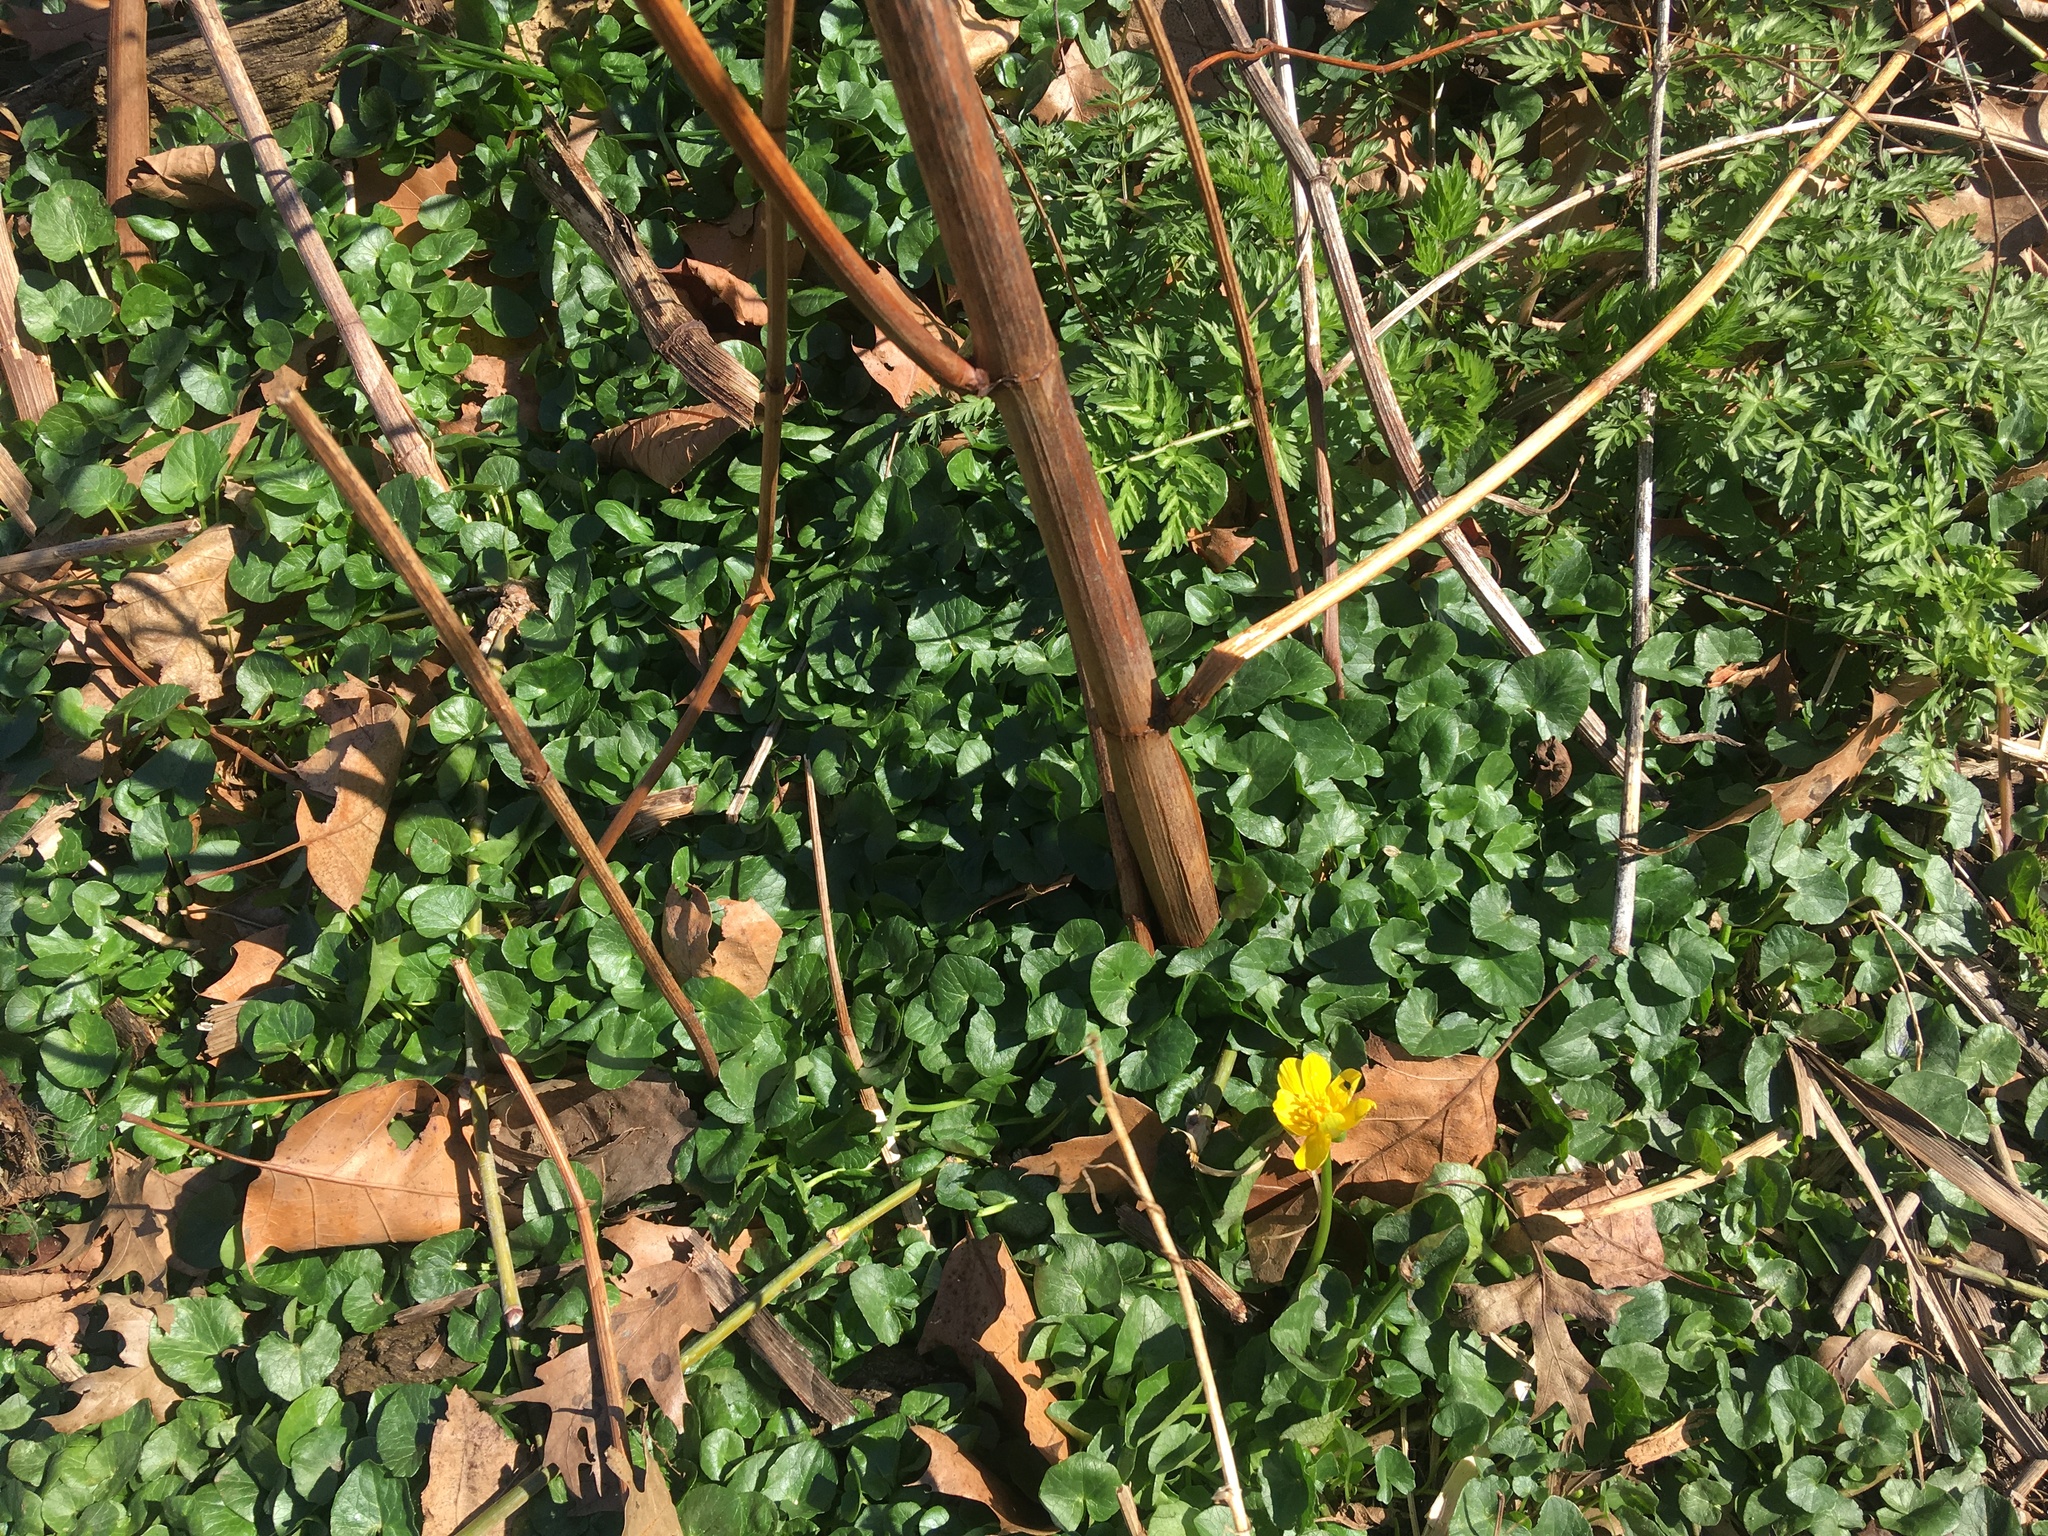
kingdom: Plantae
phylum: Tracheophyta
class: Magnoliopsida
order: Ranunculales
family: Ranunculaceae
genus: Ficaria
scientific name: Ficaria verna
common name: Lesser celandine
